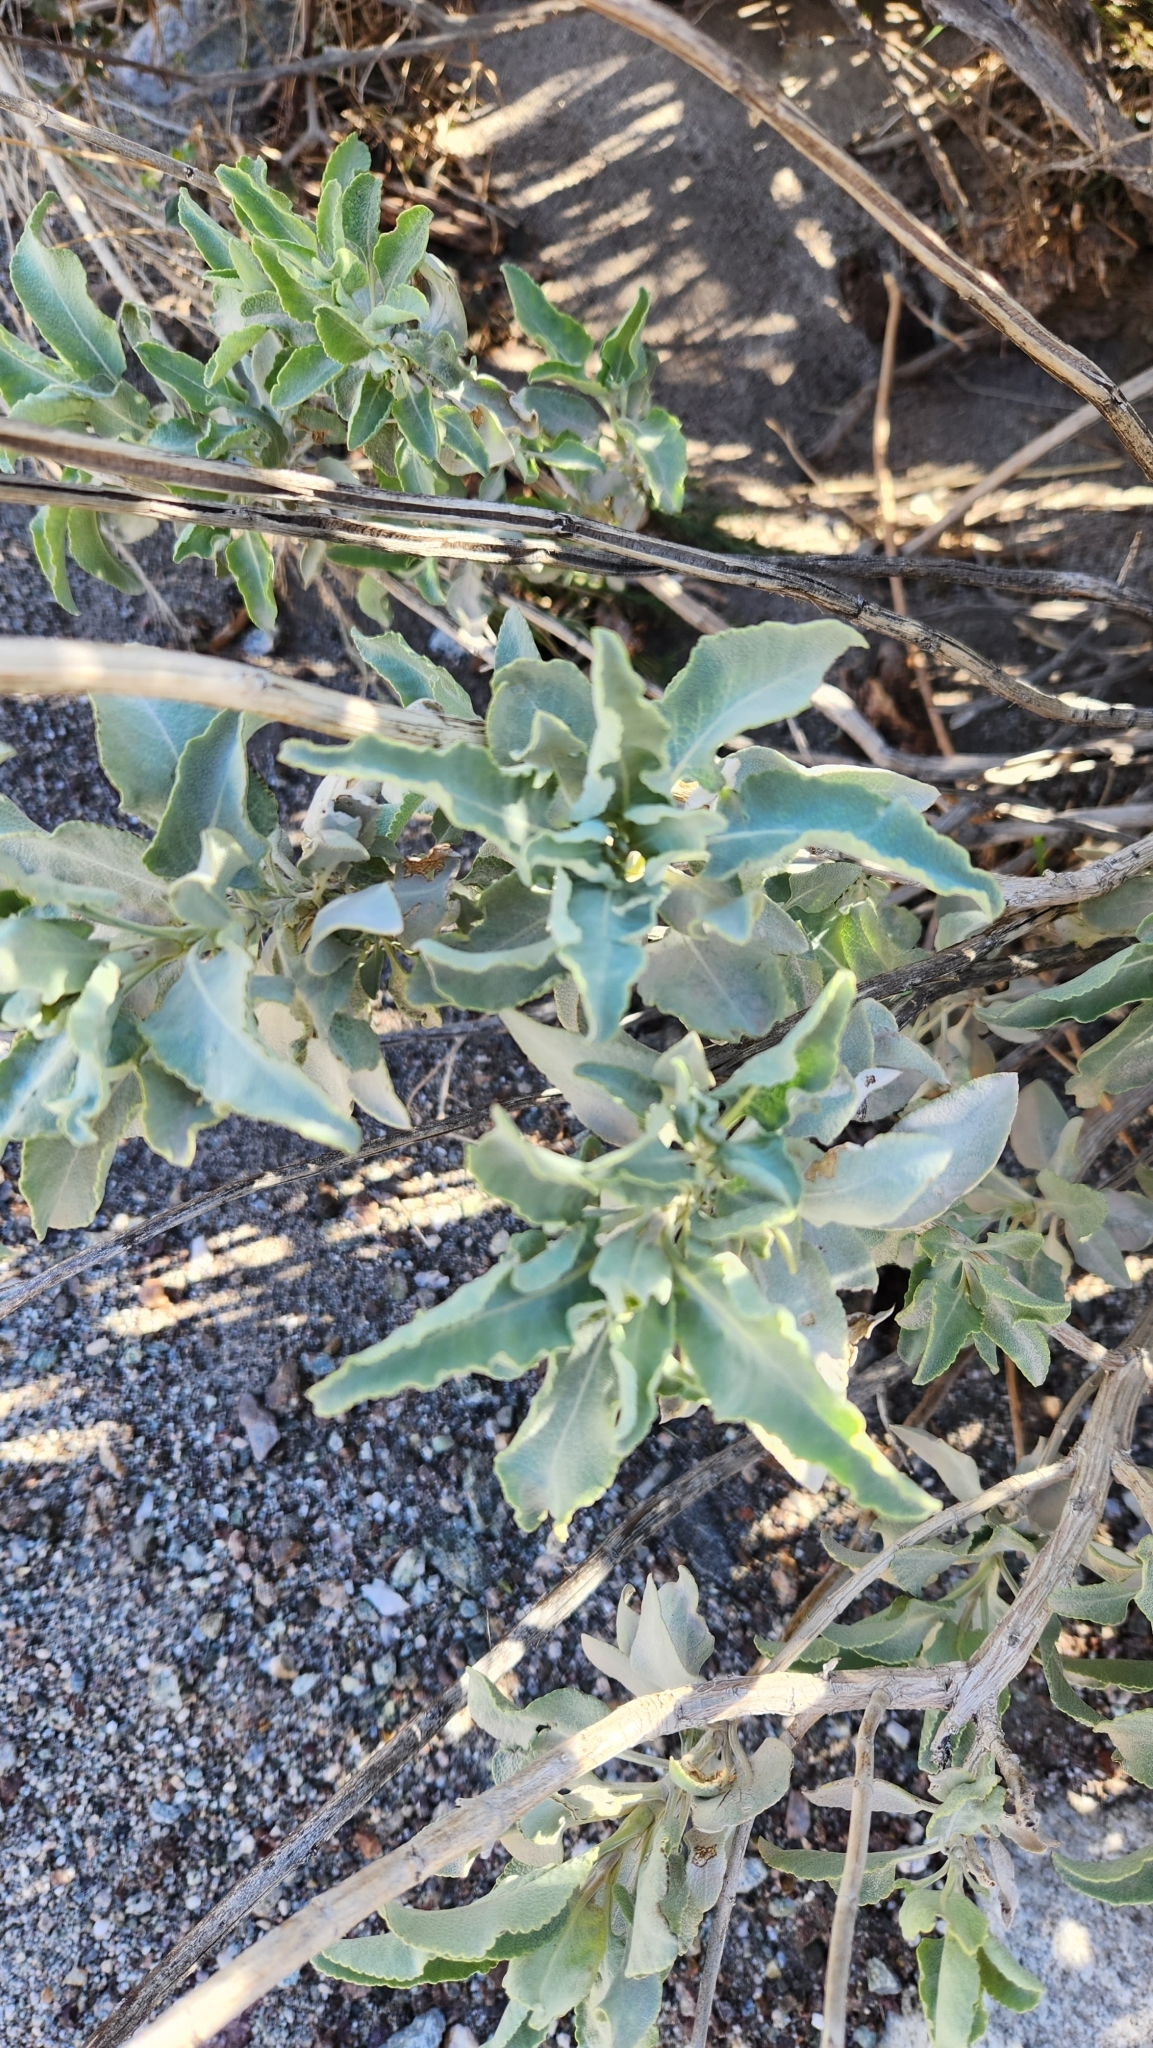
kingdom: Plantae
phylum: Tracheophyta
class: Magnoliopsida
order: Lamiales
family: Lamiaceae
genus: Salvia
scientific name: Salvia vaseyi
